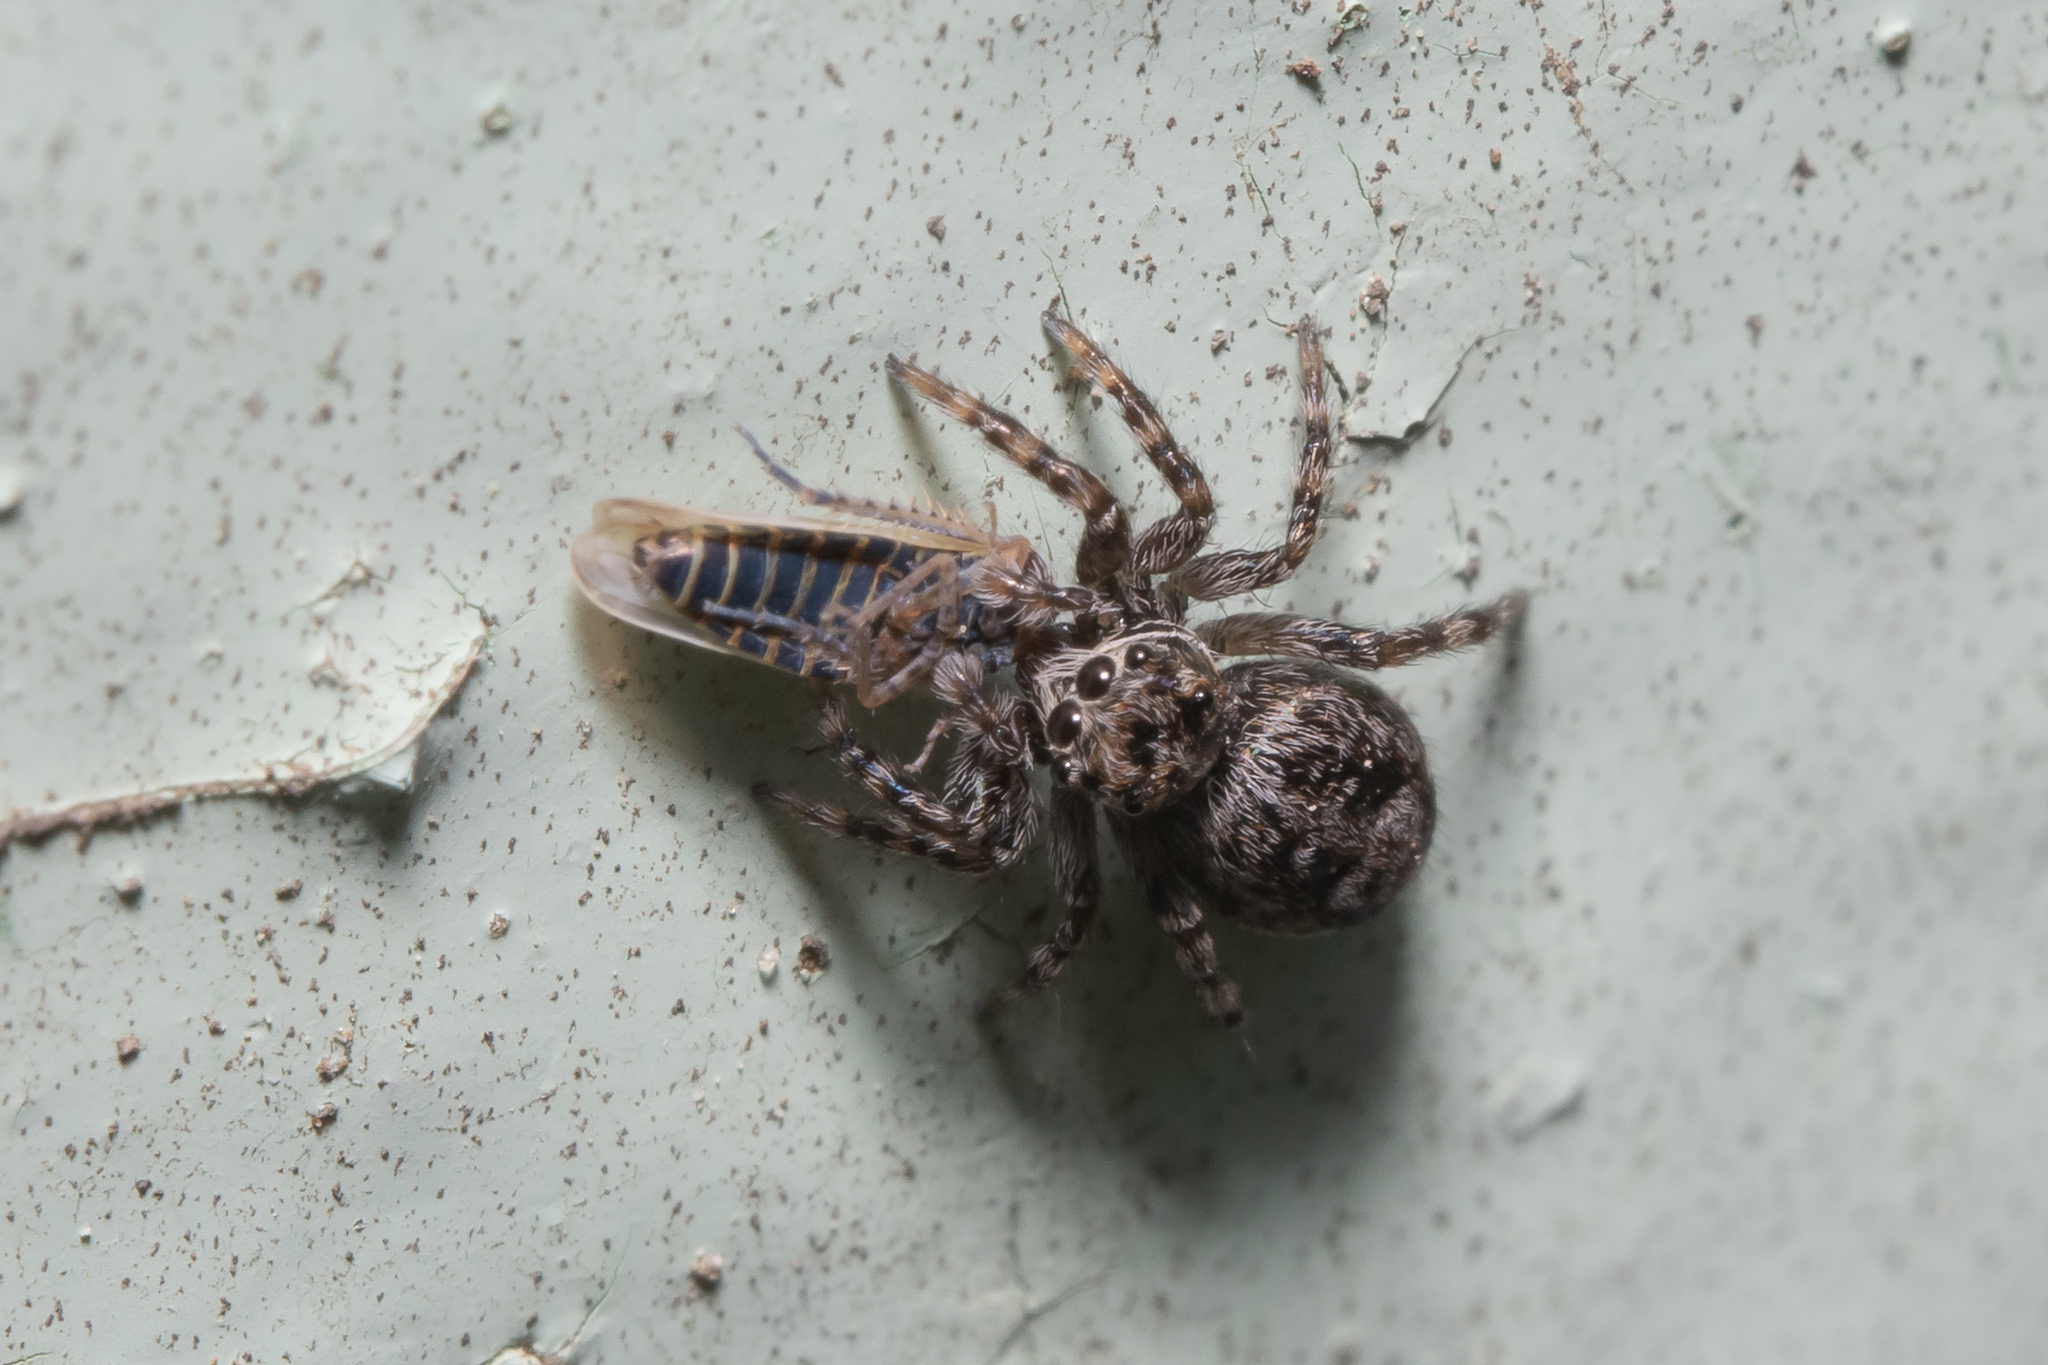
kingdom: Animalia
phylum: Arthropoda
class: Arachnida
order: Araneae
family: Salticidae
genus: Attulus
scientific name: Attulus terebratus
